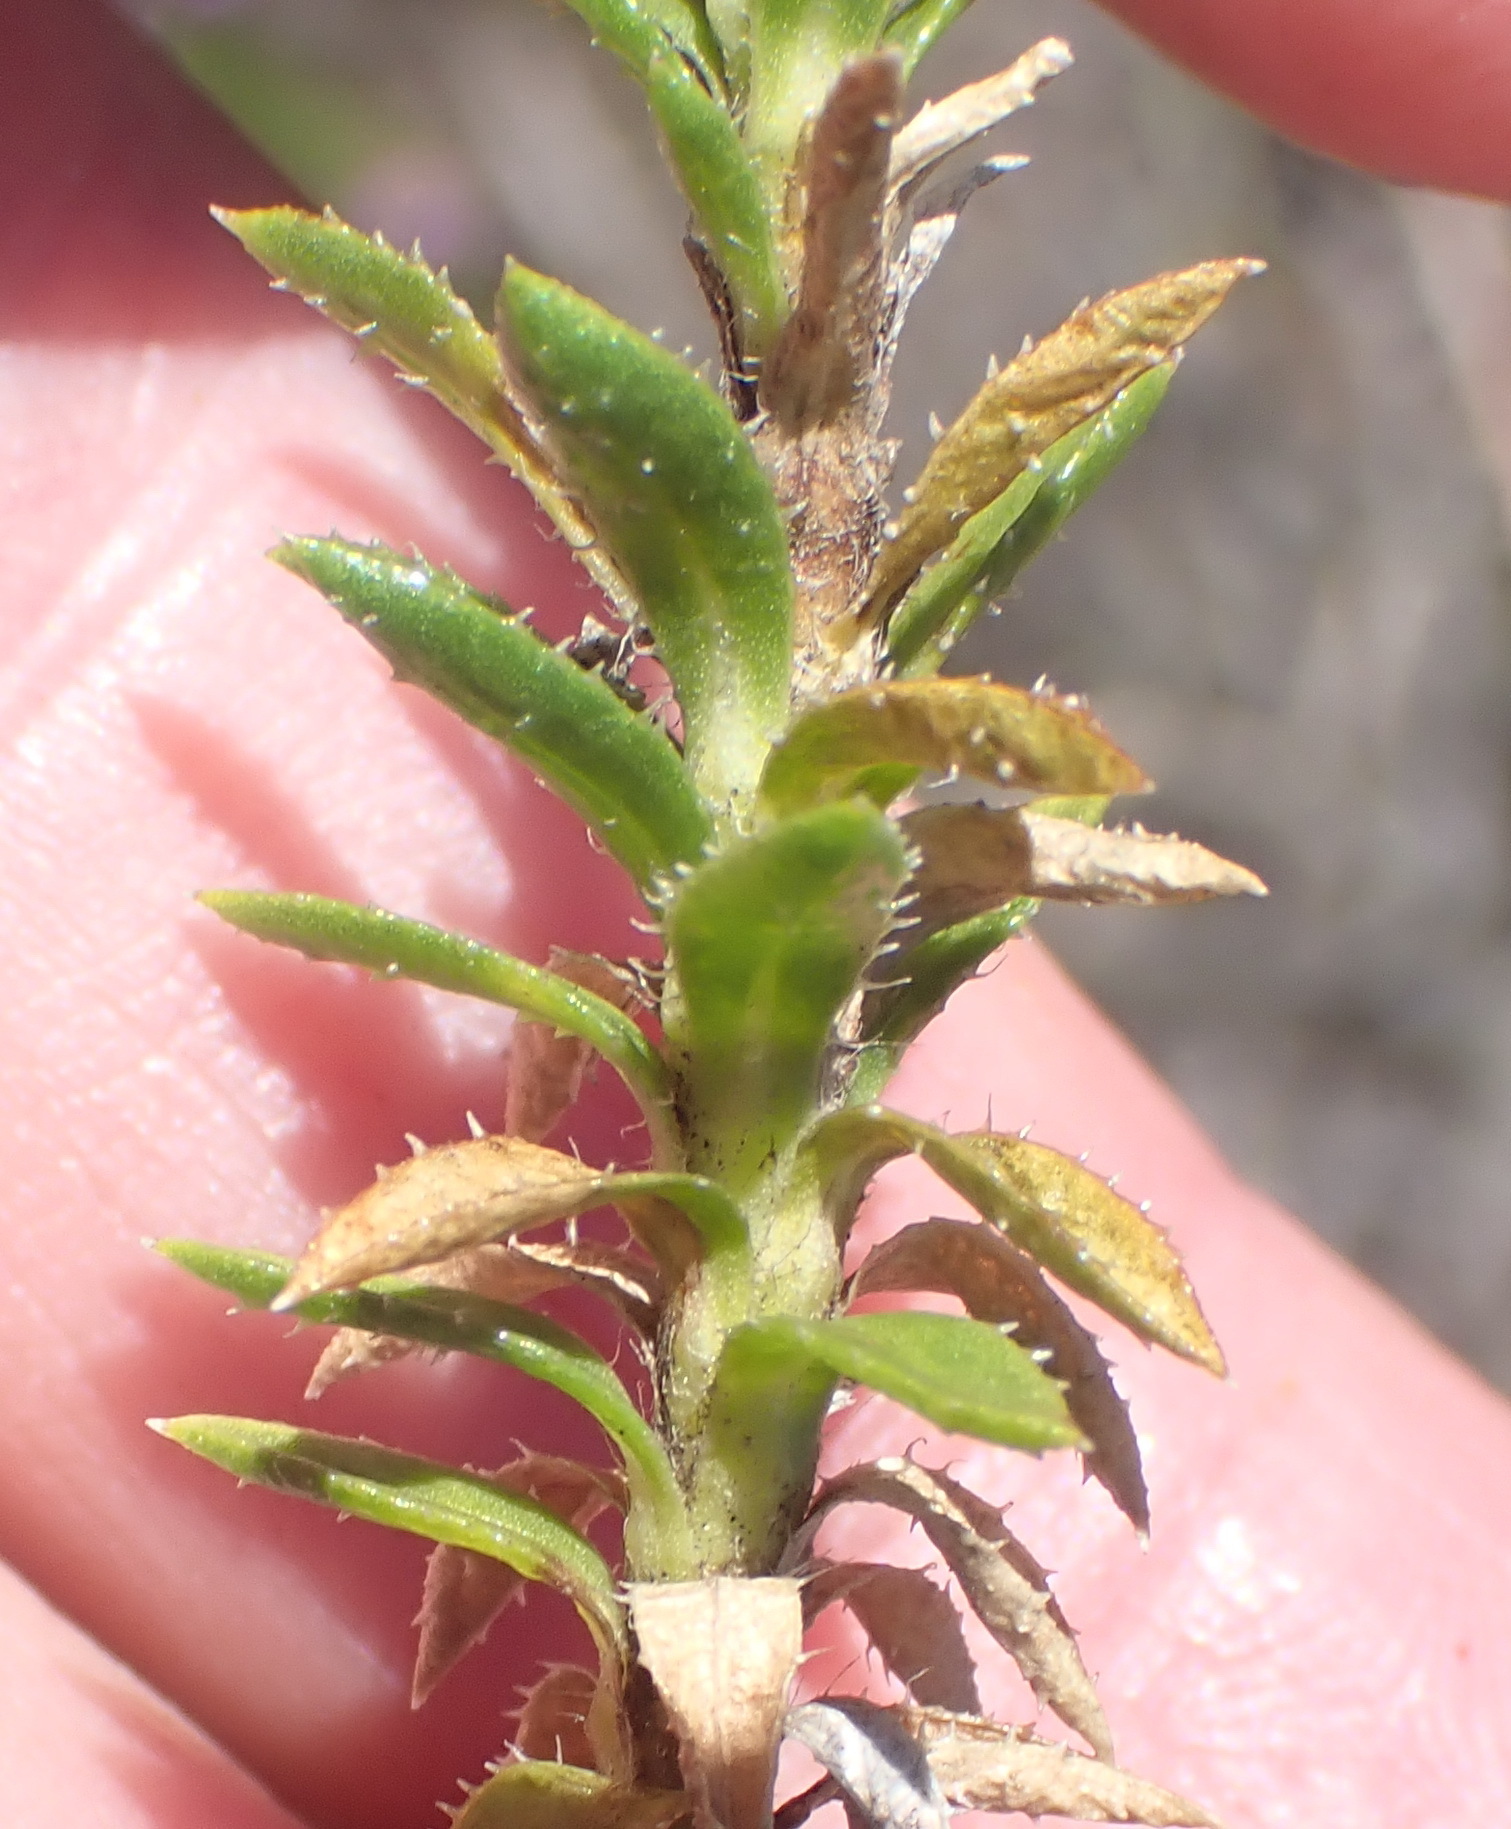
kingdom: Plantae
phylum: Tracheophyta
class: Magnoliopsida
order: Asterales
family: Asteraceae
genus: Felicia
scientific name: Felicia echinata
